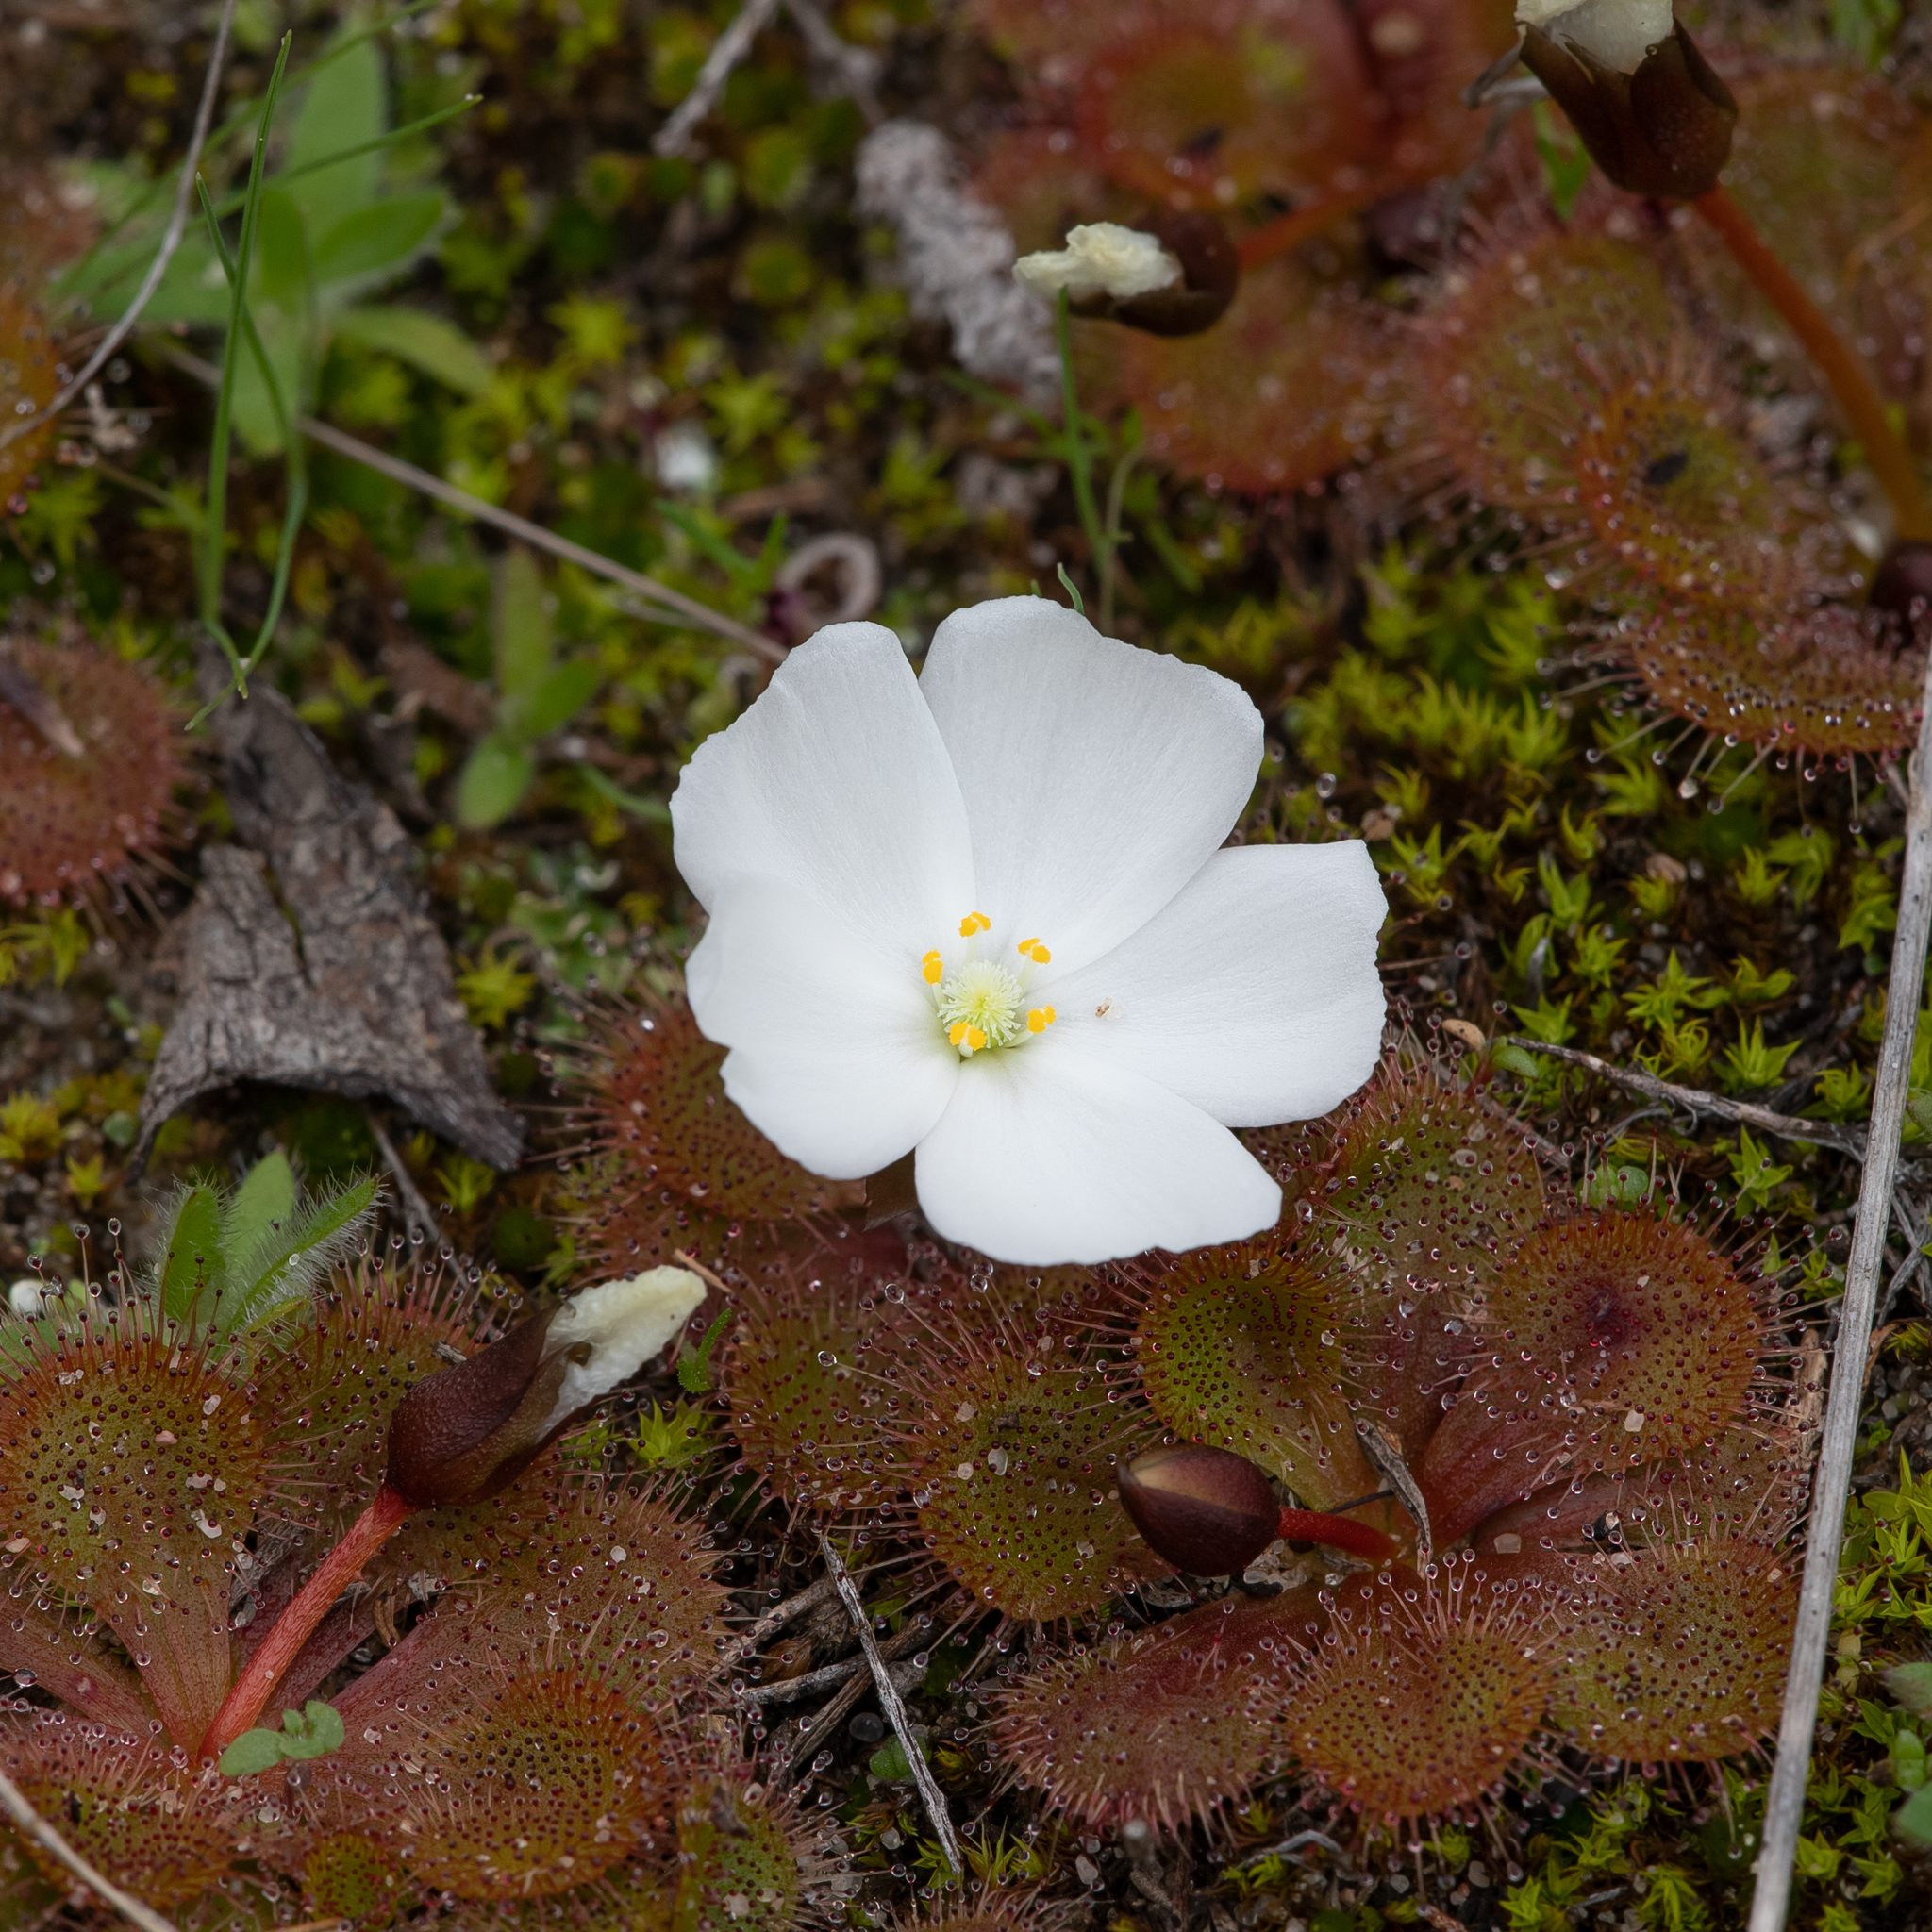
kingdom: Plantae
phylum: Tracheophyta
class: Magnoliopsida
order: Caryophyllales
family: Droseraceae
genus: Drosera
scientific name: Drosera aberrans
